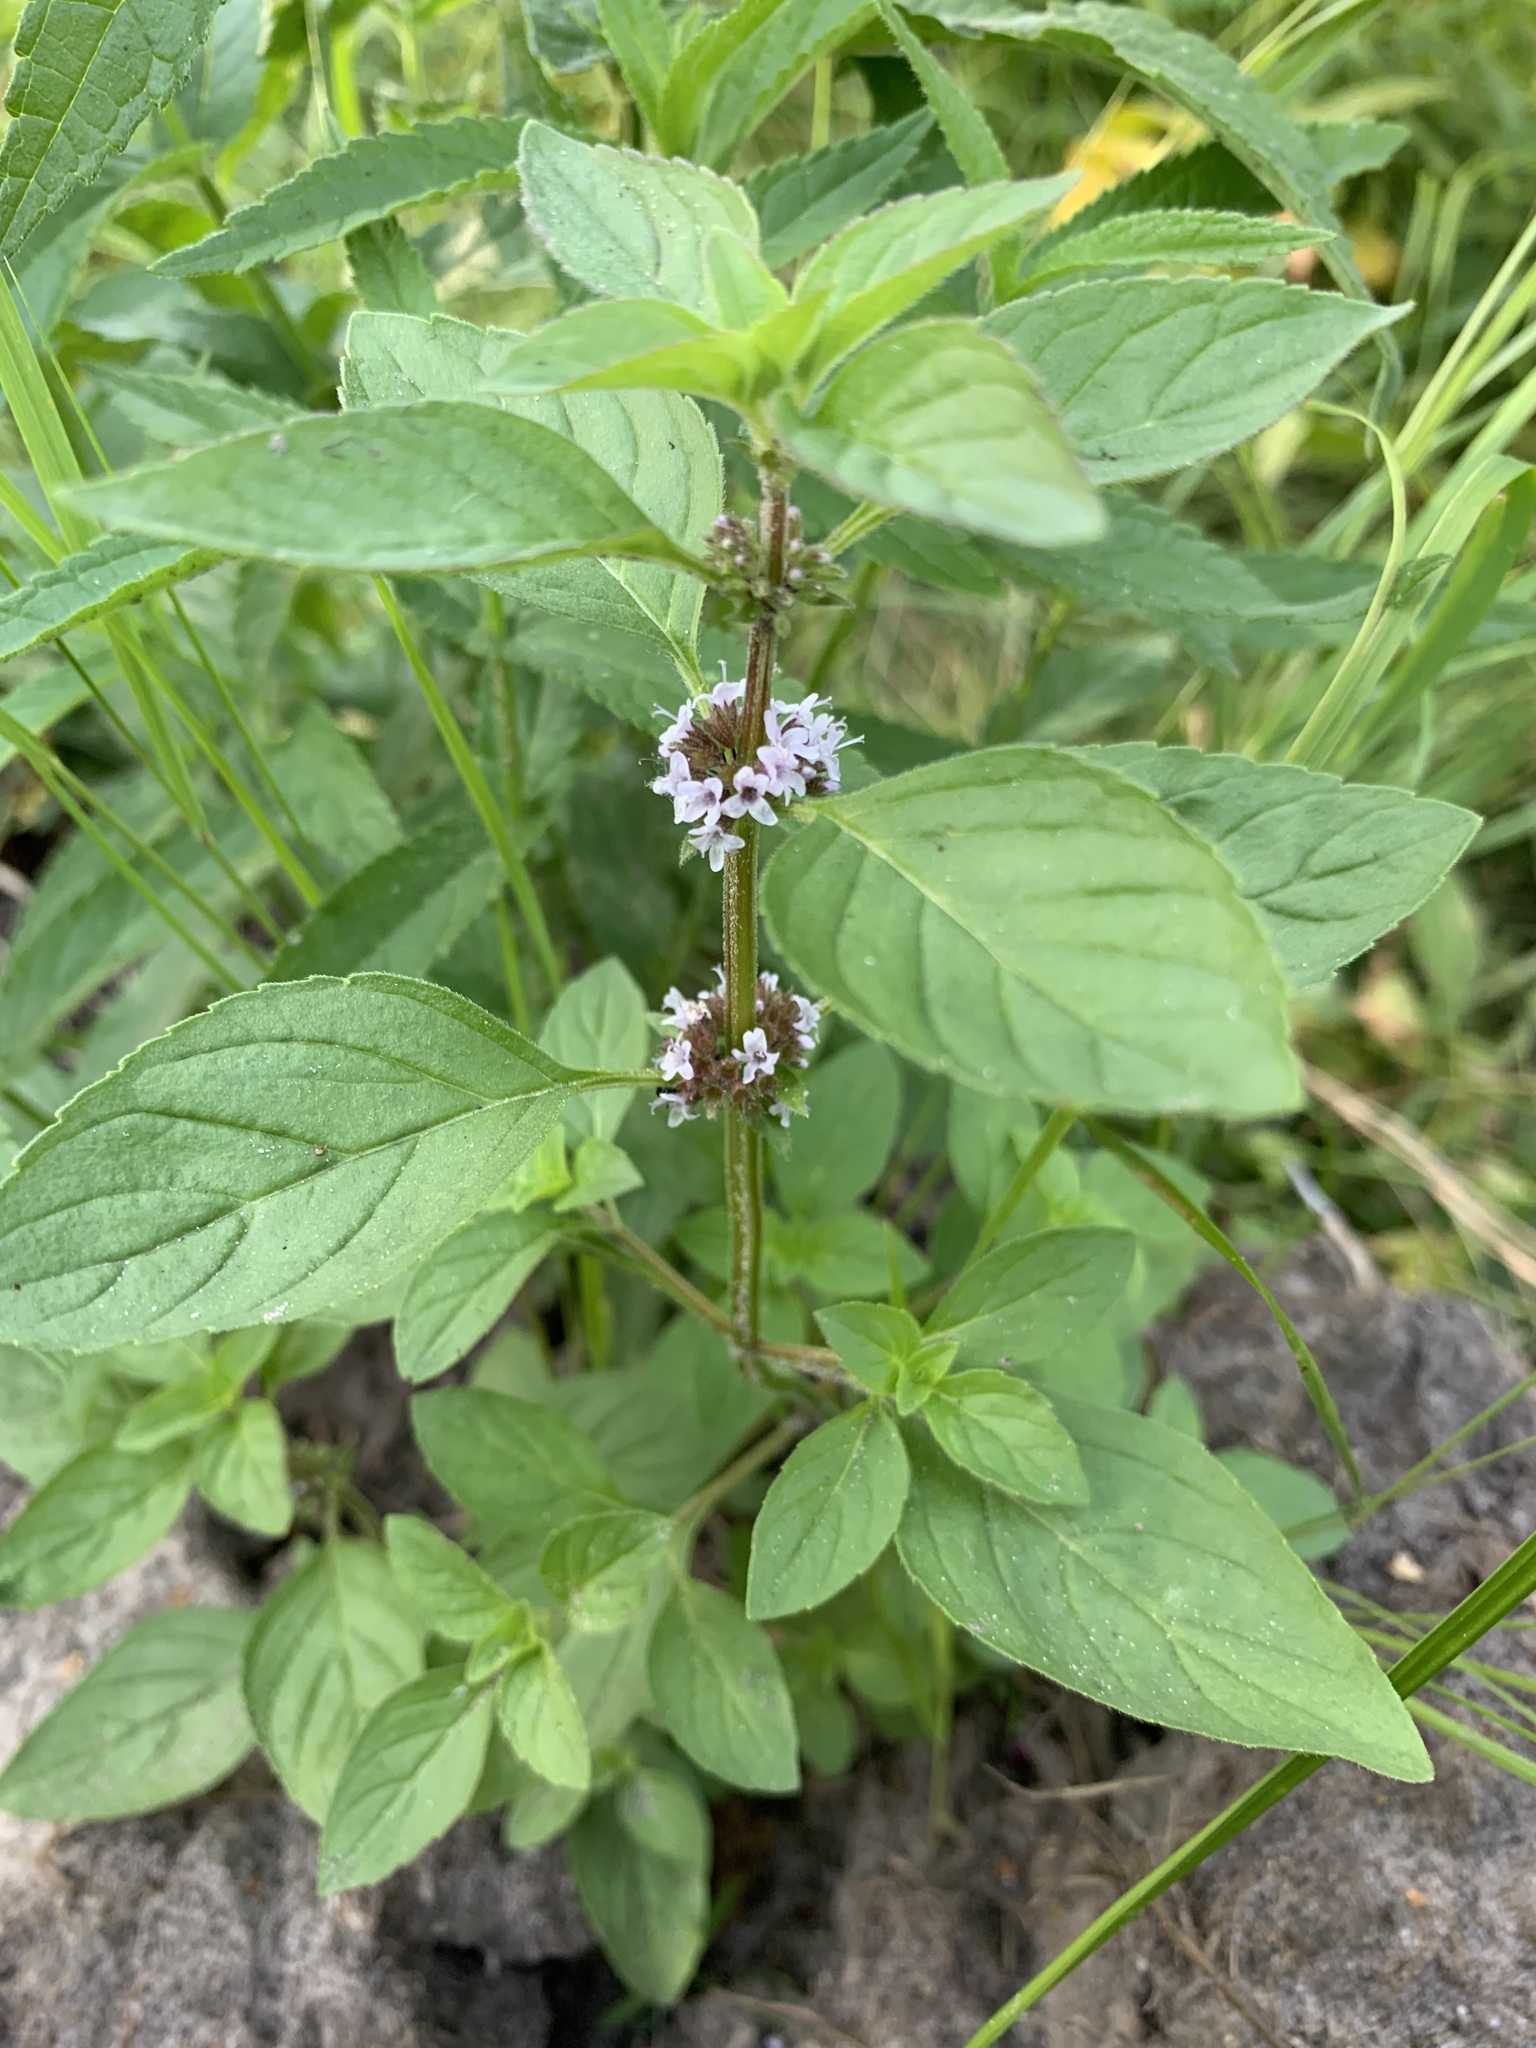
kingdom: Plantae
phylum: Tracheophyta
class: Magnoliopsida
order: Lamiales
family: Lamiaceae
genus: Mentha
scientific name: Mentha arvensis
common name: Corn mint
